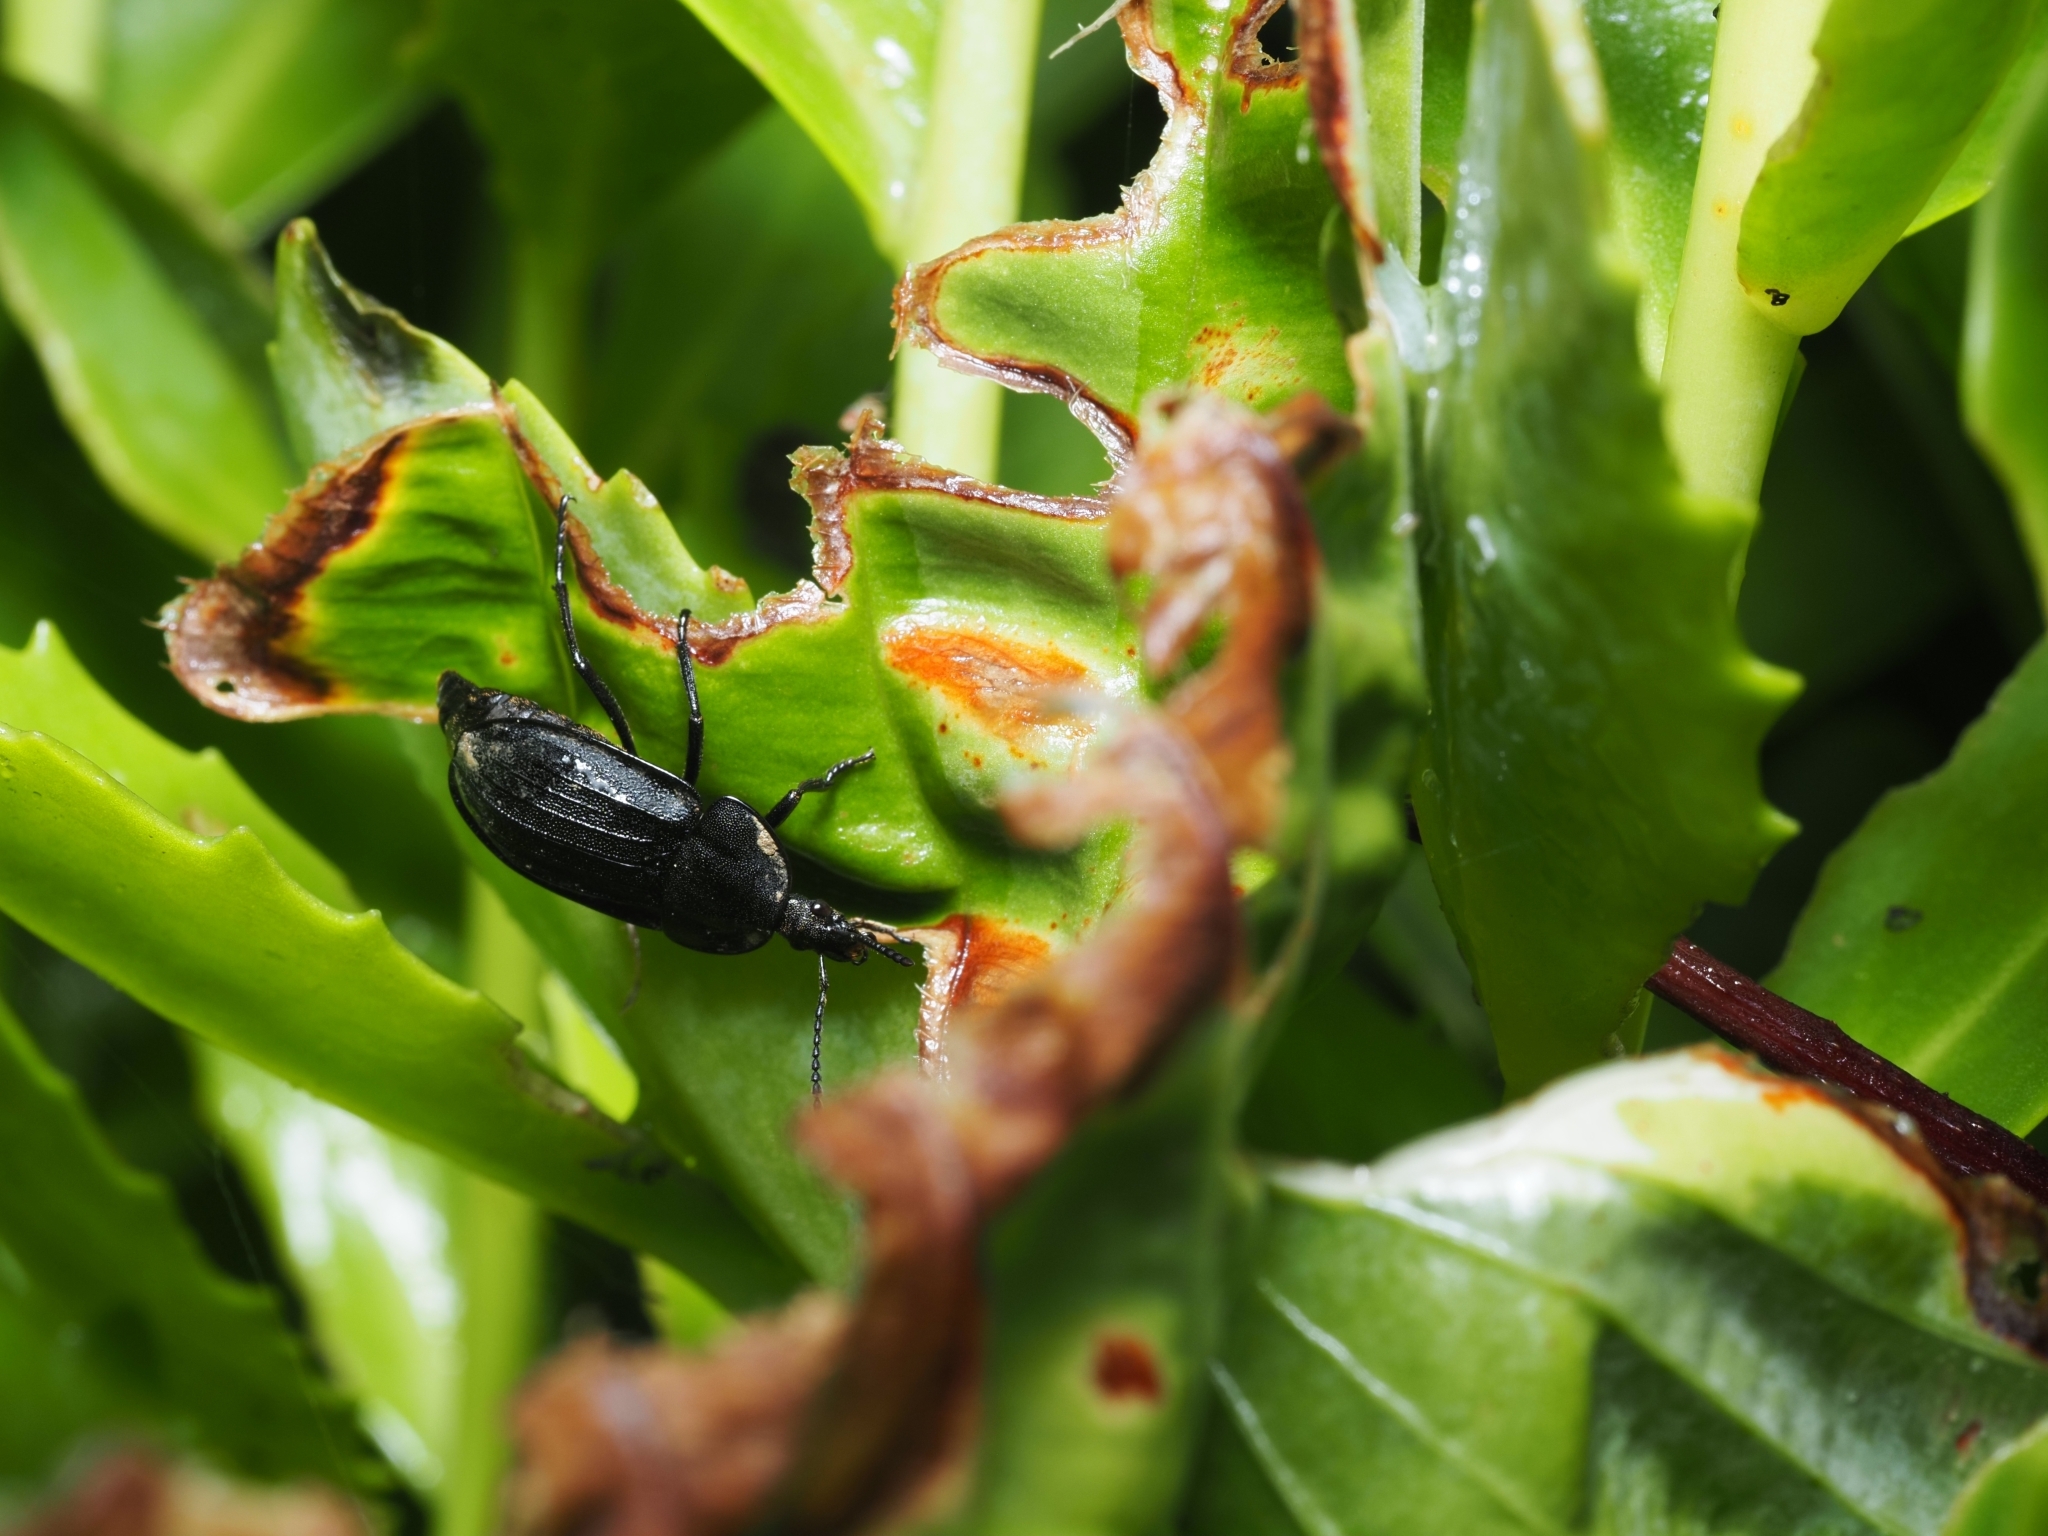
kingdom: Animalia
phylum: Arthropoda
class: Insecta
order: Coleoptera
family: Staphylinidae
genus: Silpha
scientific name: Silpha atrata
